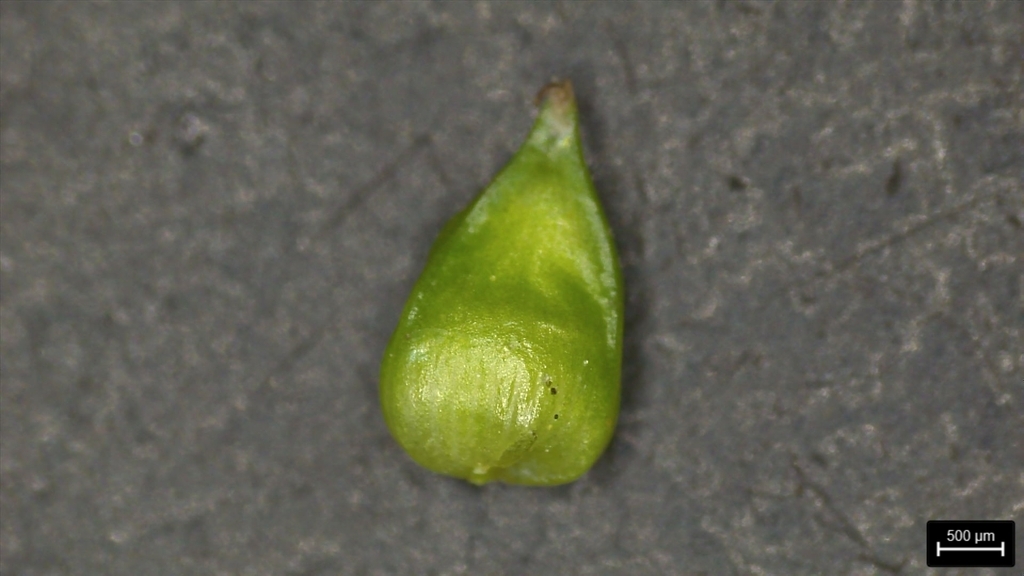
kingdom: Plantae
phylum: Tracheophyta
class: Liliopsida
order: Poales
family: Cyperaceae
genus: Carex
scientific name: Carex retroflexa
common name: Reflexed sedge
